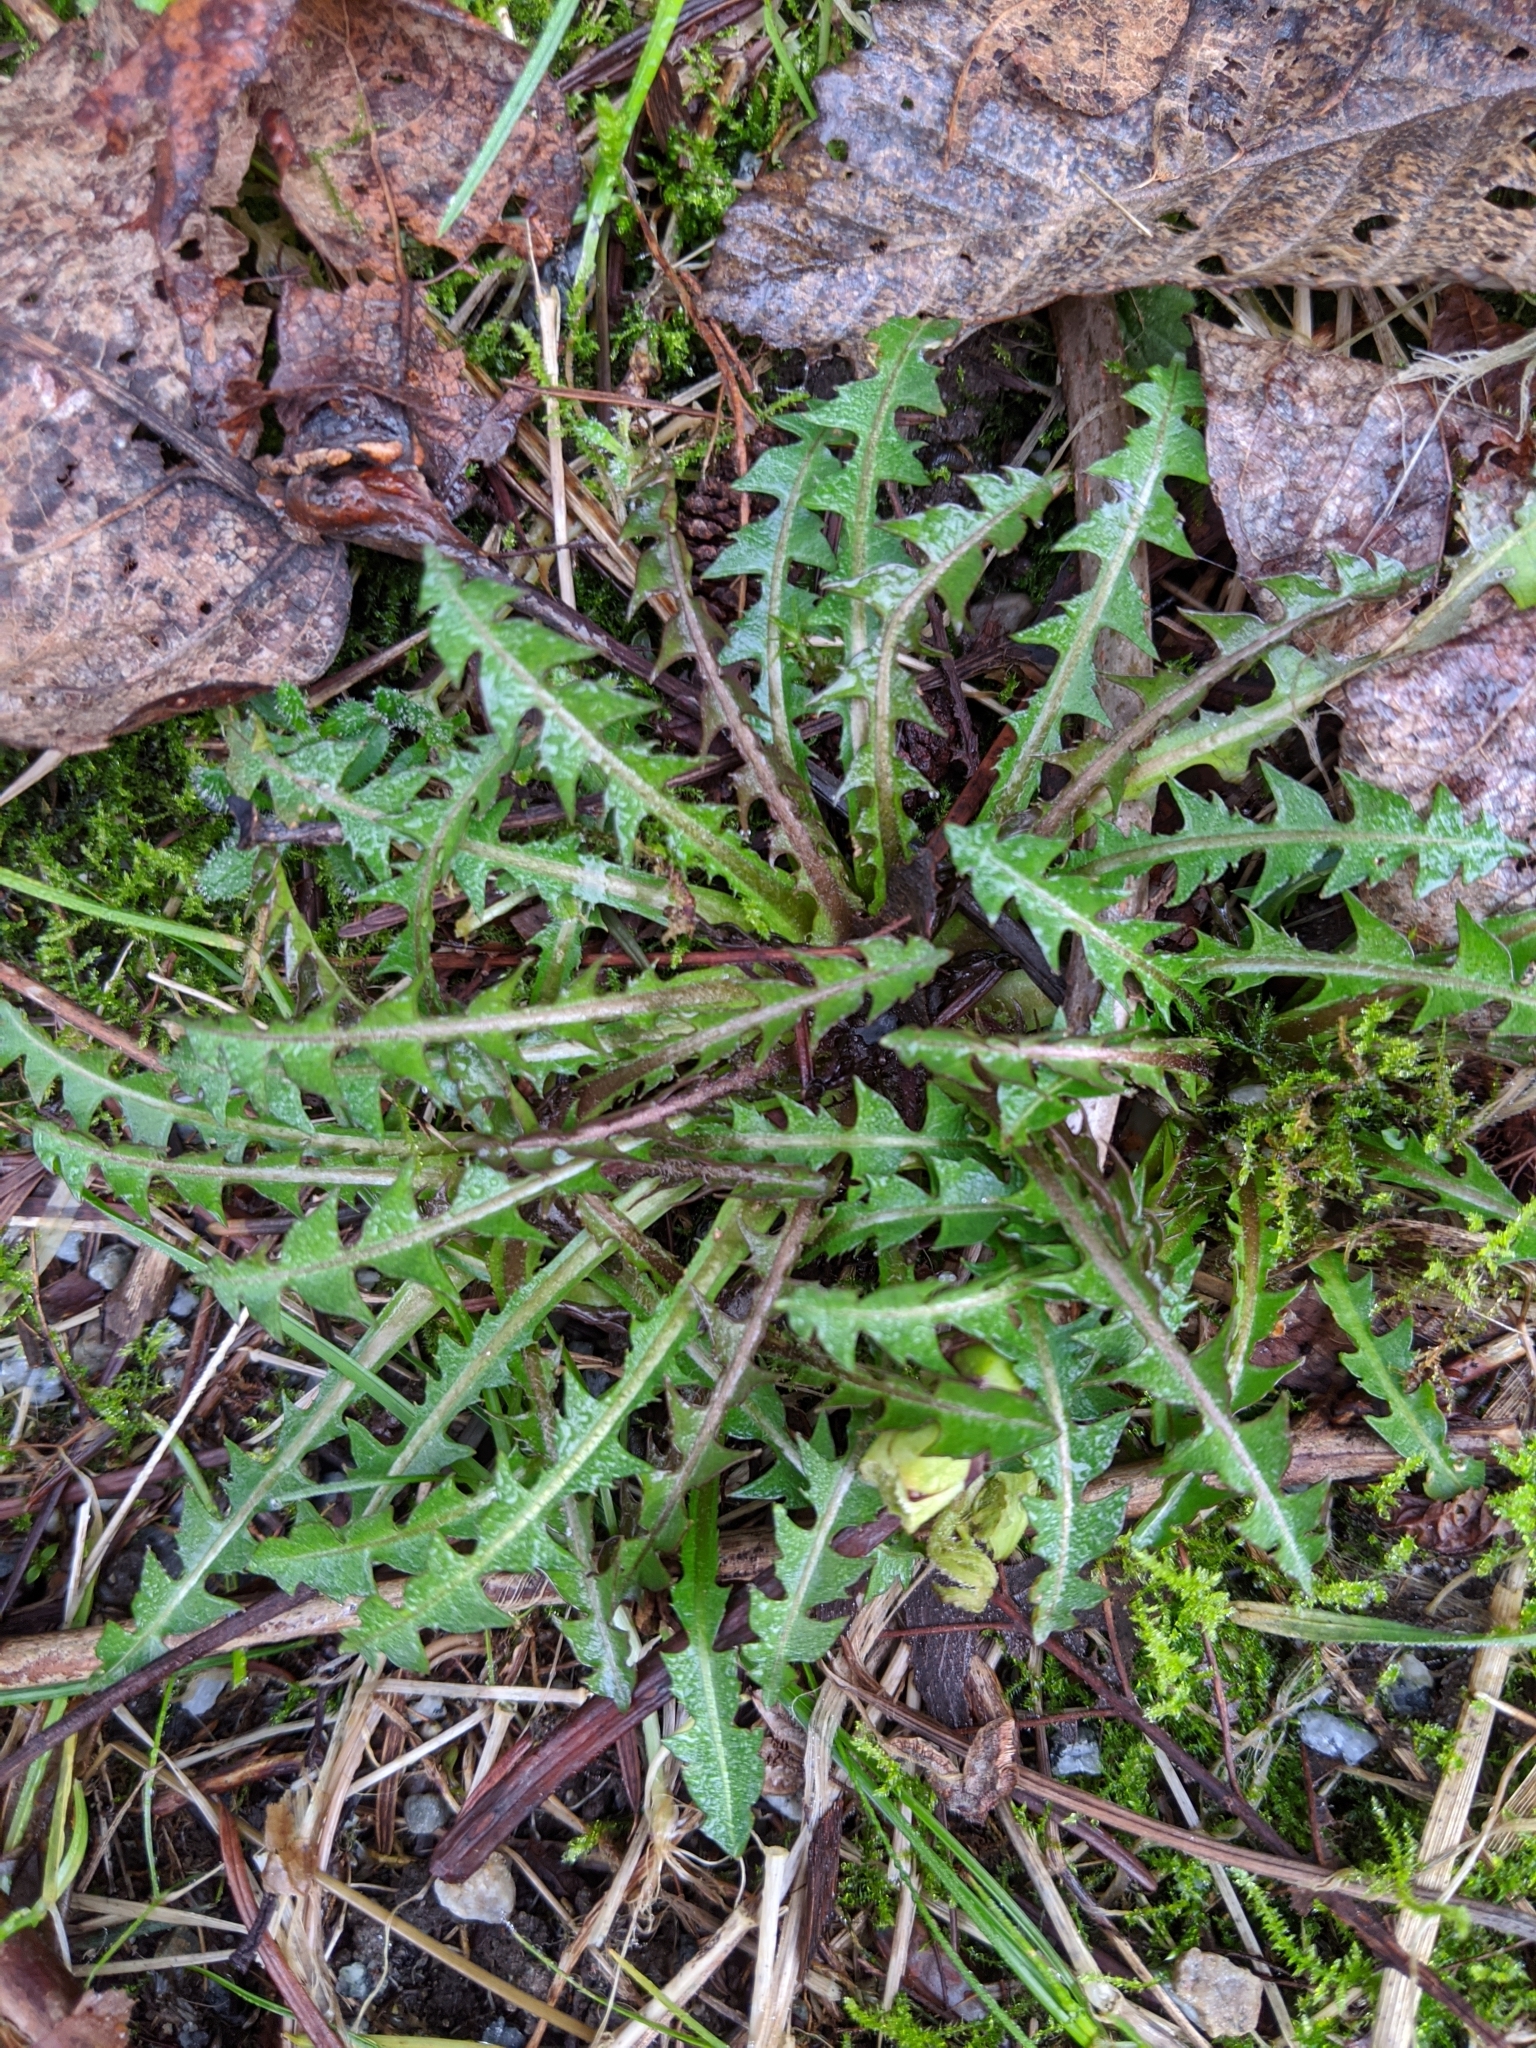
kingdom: Plantae
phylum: Tracheophyta
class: Magnoliopsida
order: Asterales
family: Asteraceae
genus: Taraxacum
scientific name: Taraxacum officinale
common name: Common dandelion
